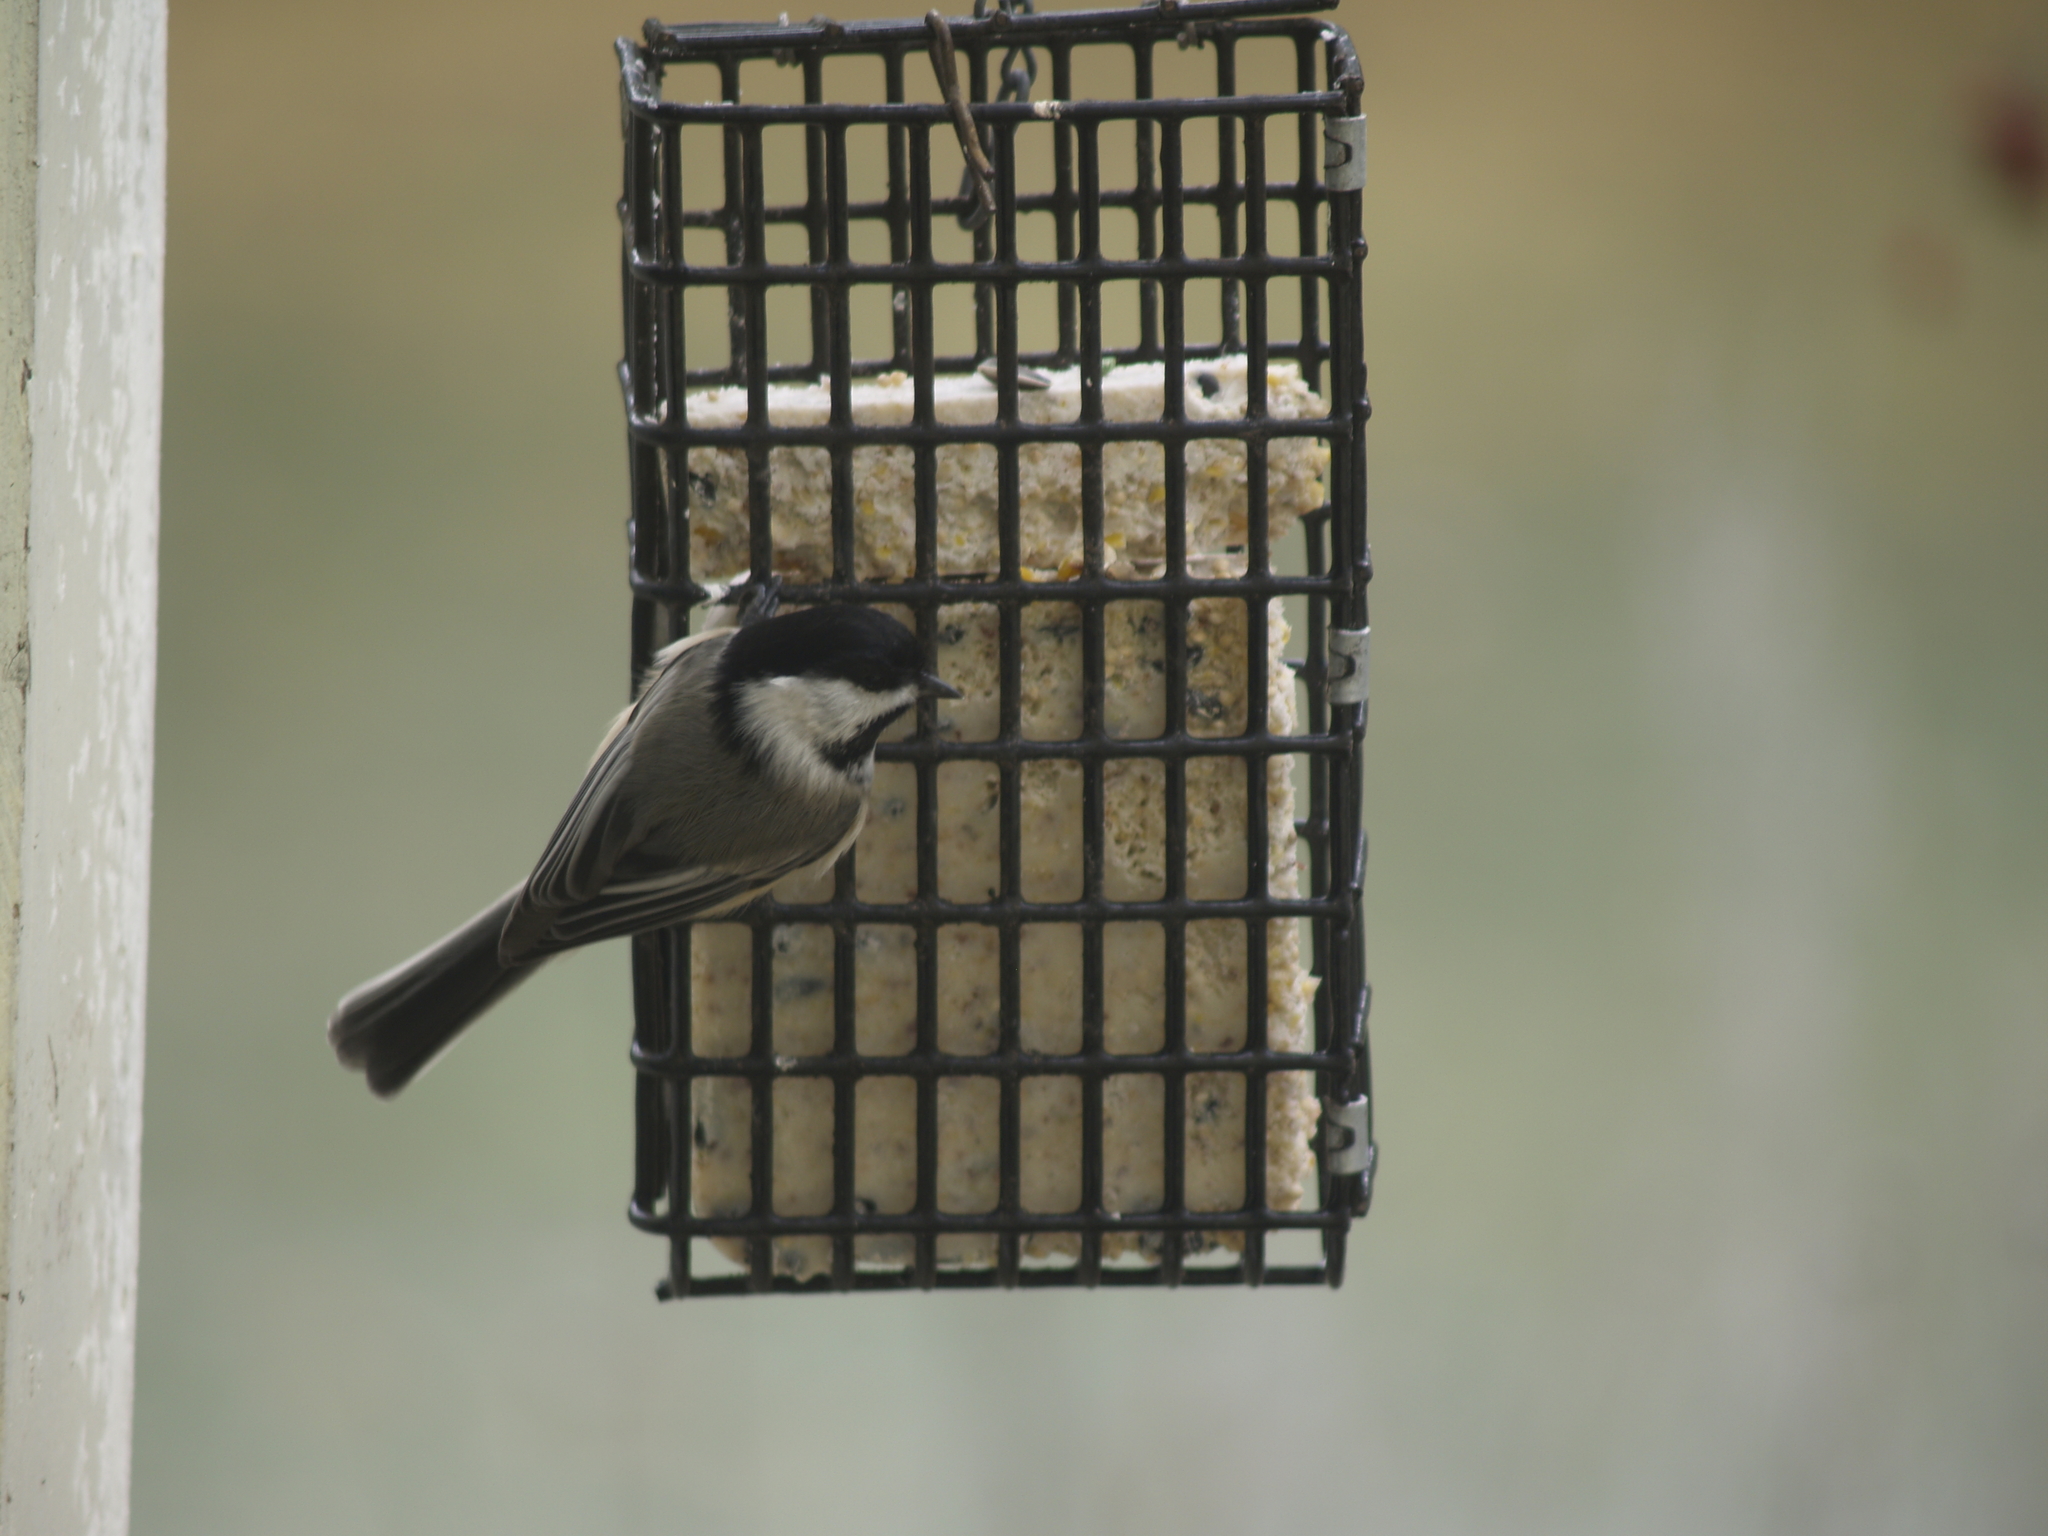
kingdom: Animalia
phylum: Chordata
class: Aves
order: Passeriformes
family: Paridae
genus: Poecile
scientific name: Poecile atricapillus
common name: Black-capped chickadee
